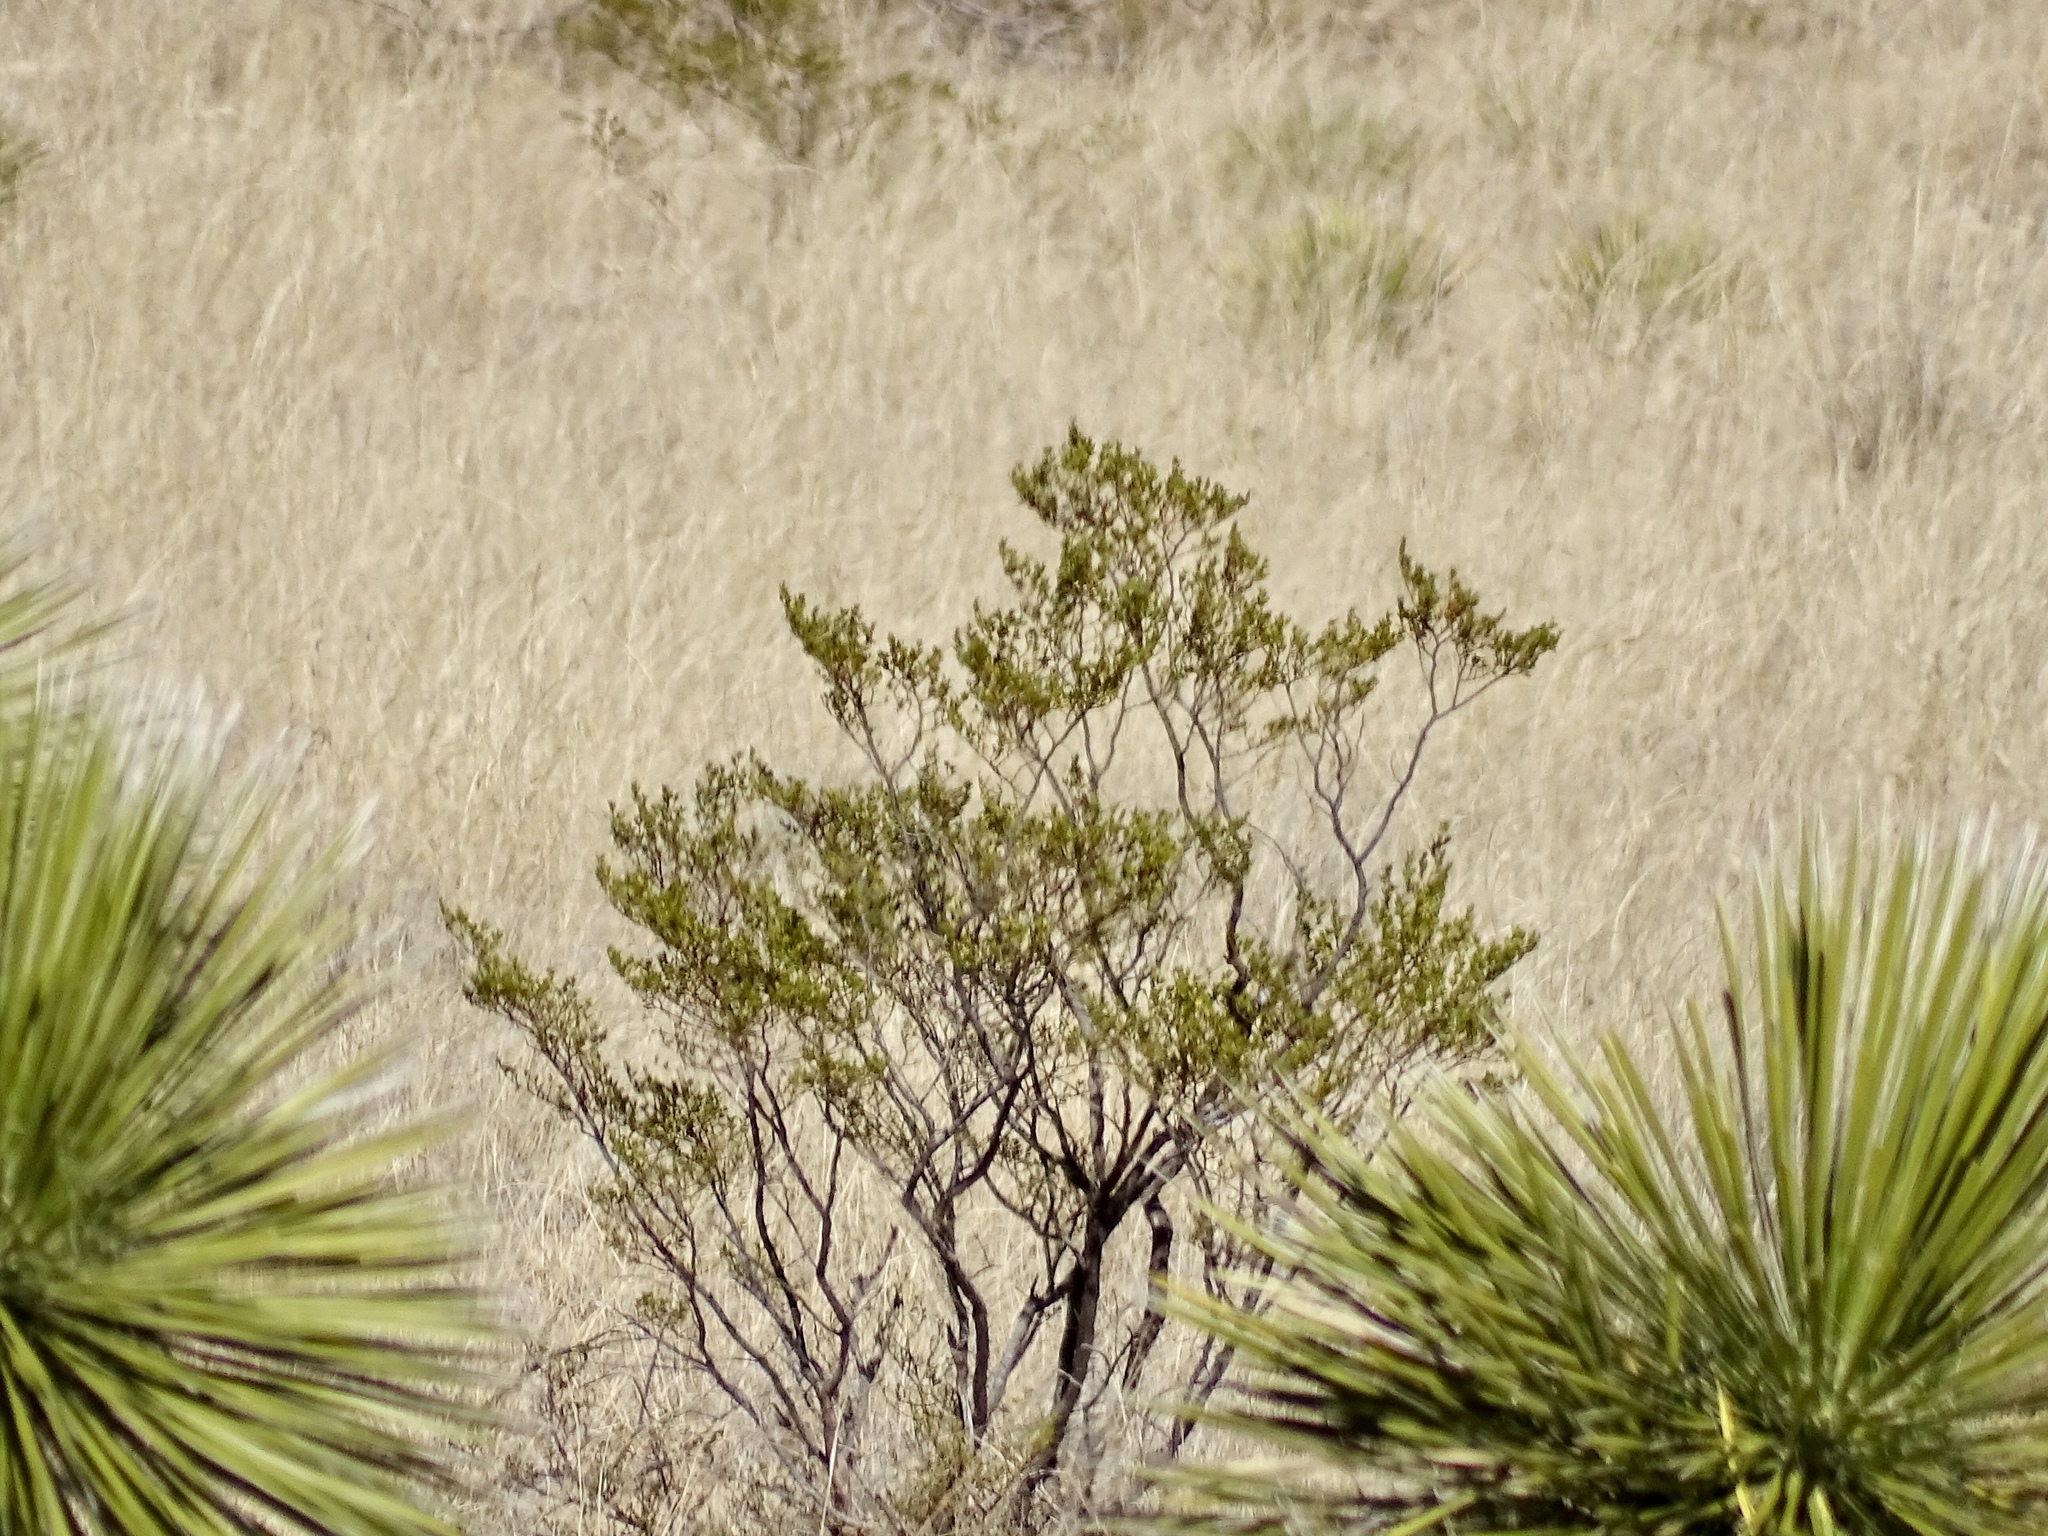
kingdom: Plantae
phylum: Tracheophyta
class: Magnoliopsida
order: Zygophyllales
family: Zygophyllaceae
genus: Larrea
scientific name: Larrea tridentata
